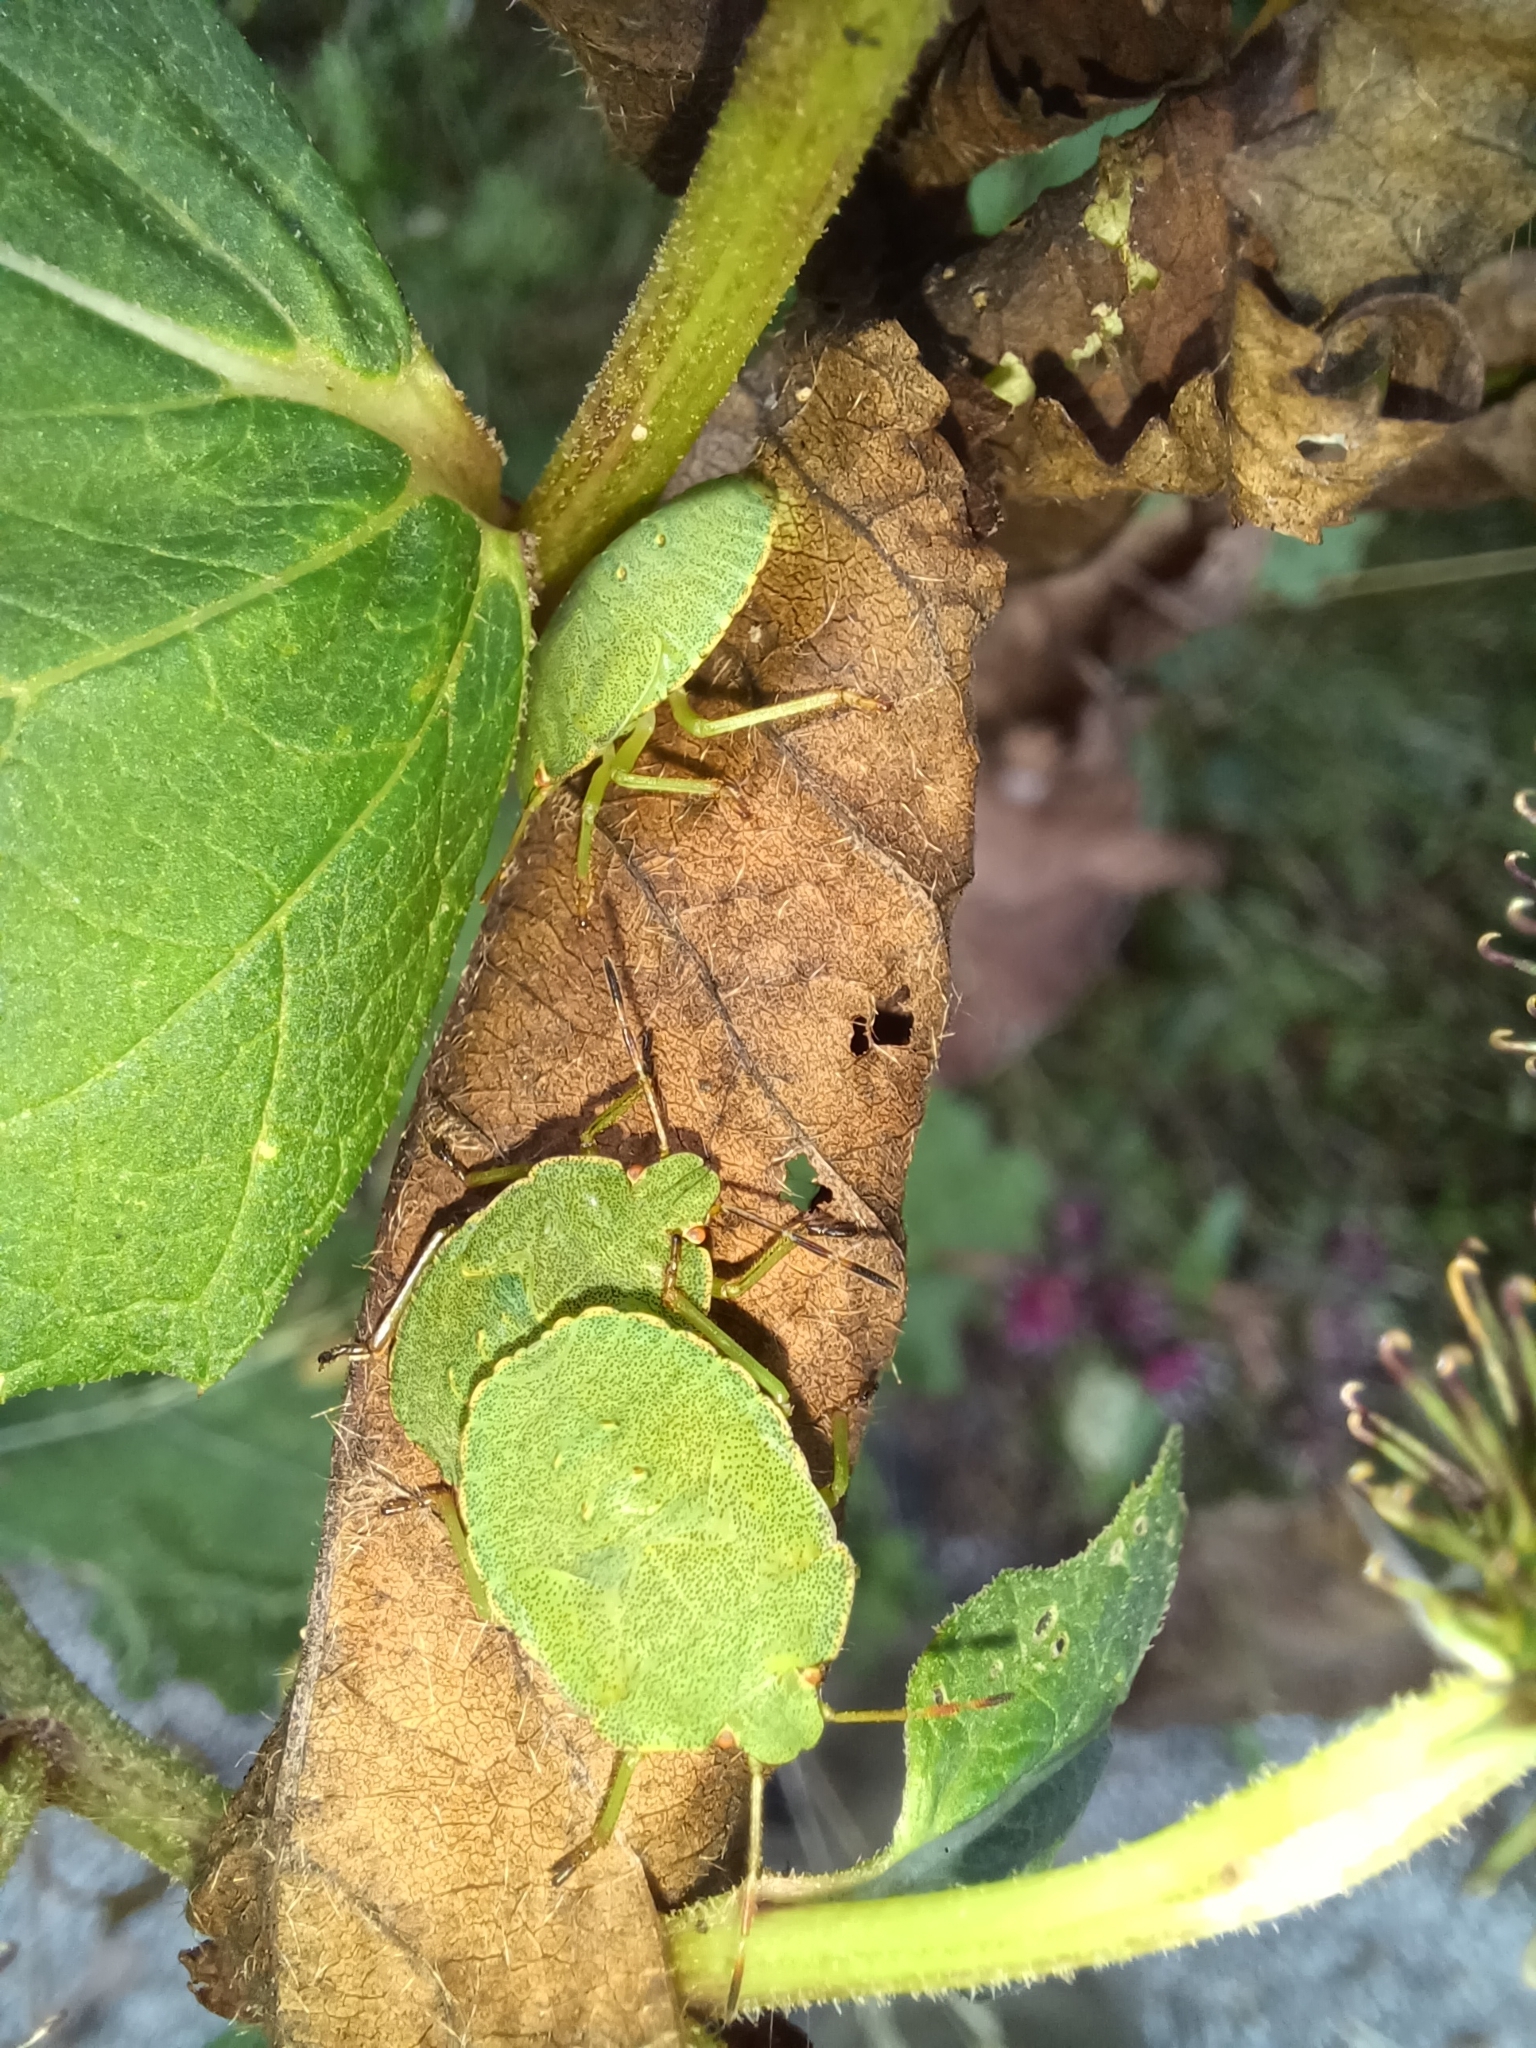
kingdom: Animalia
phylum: Arthropoda
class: Insecta
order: Hemiptera
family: Pentatomidae
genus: Palomena
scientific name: Palomena prasina
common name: Green shieldbug
